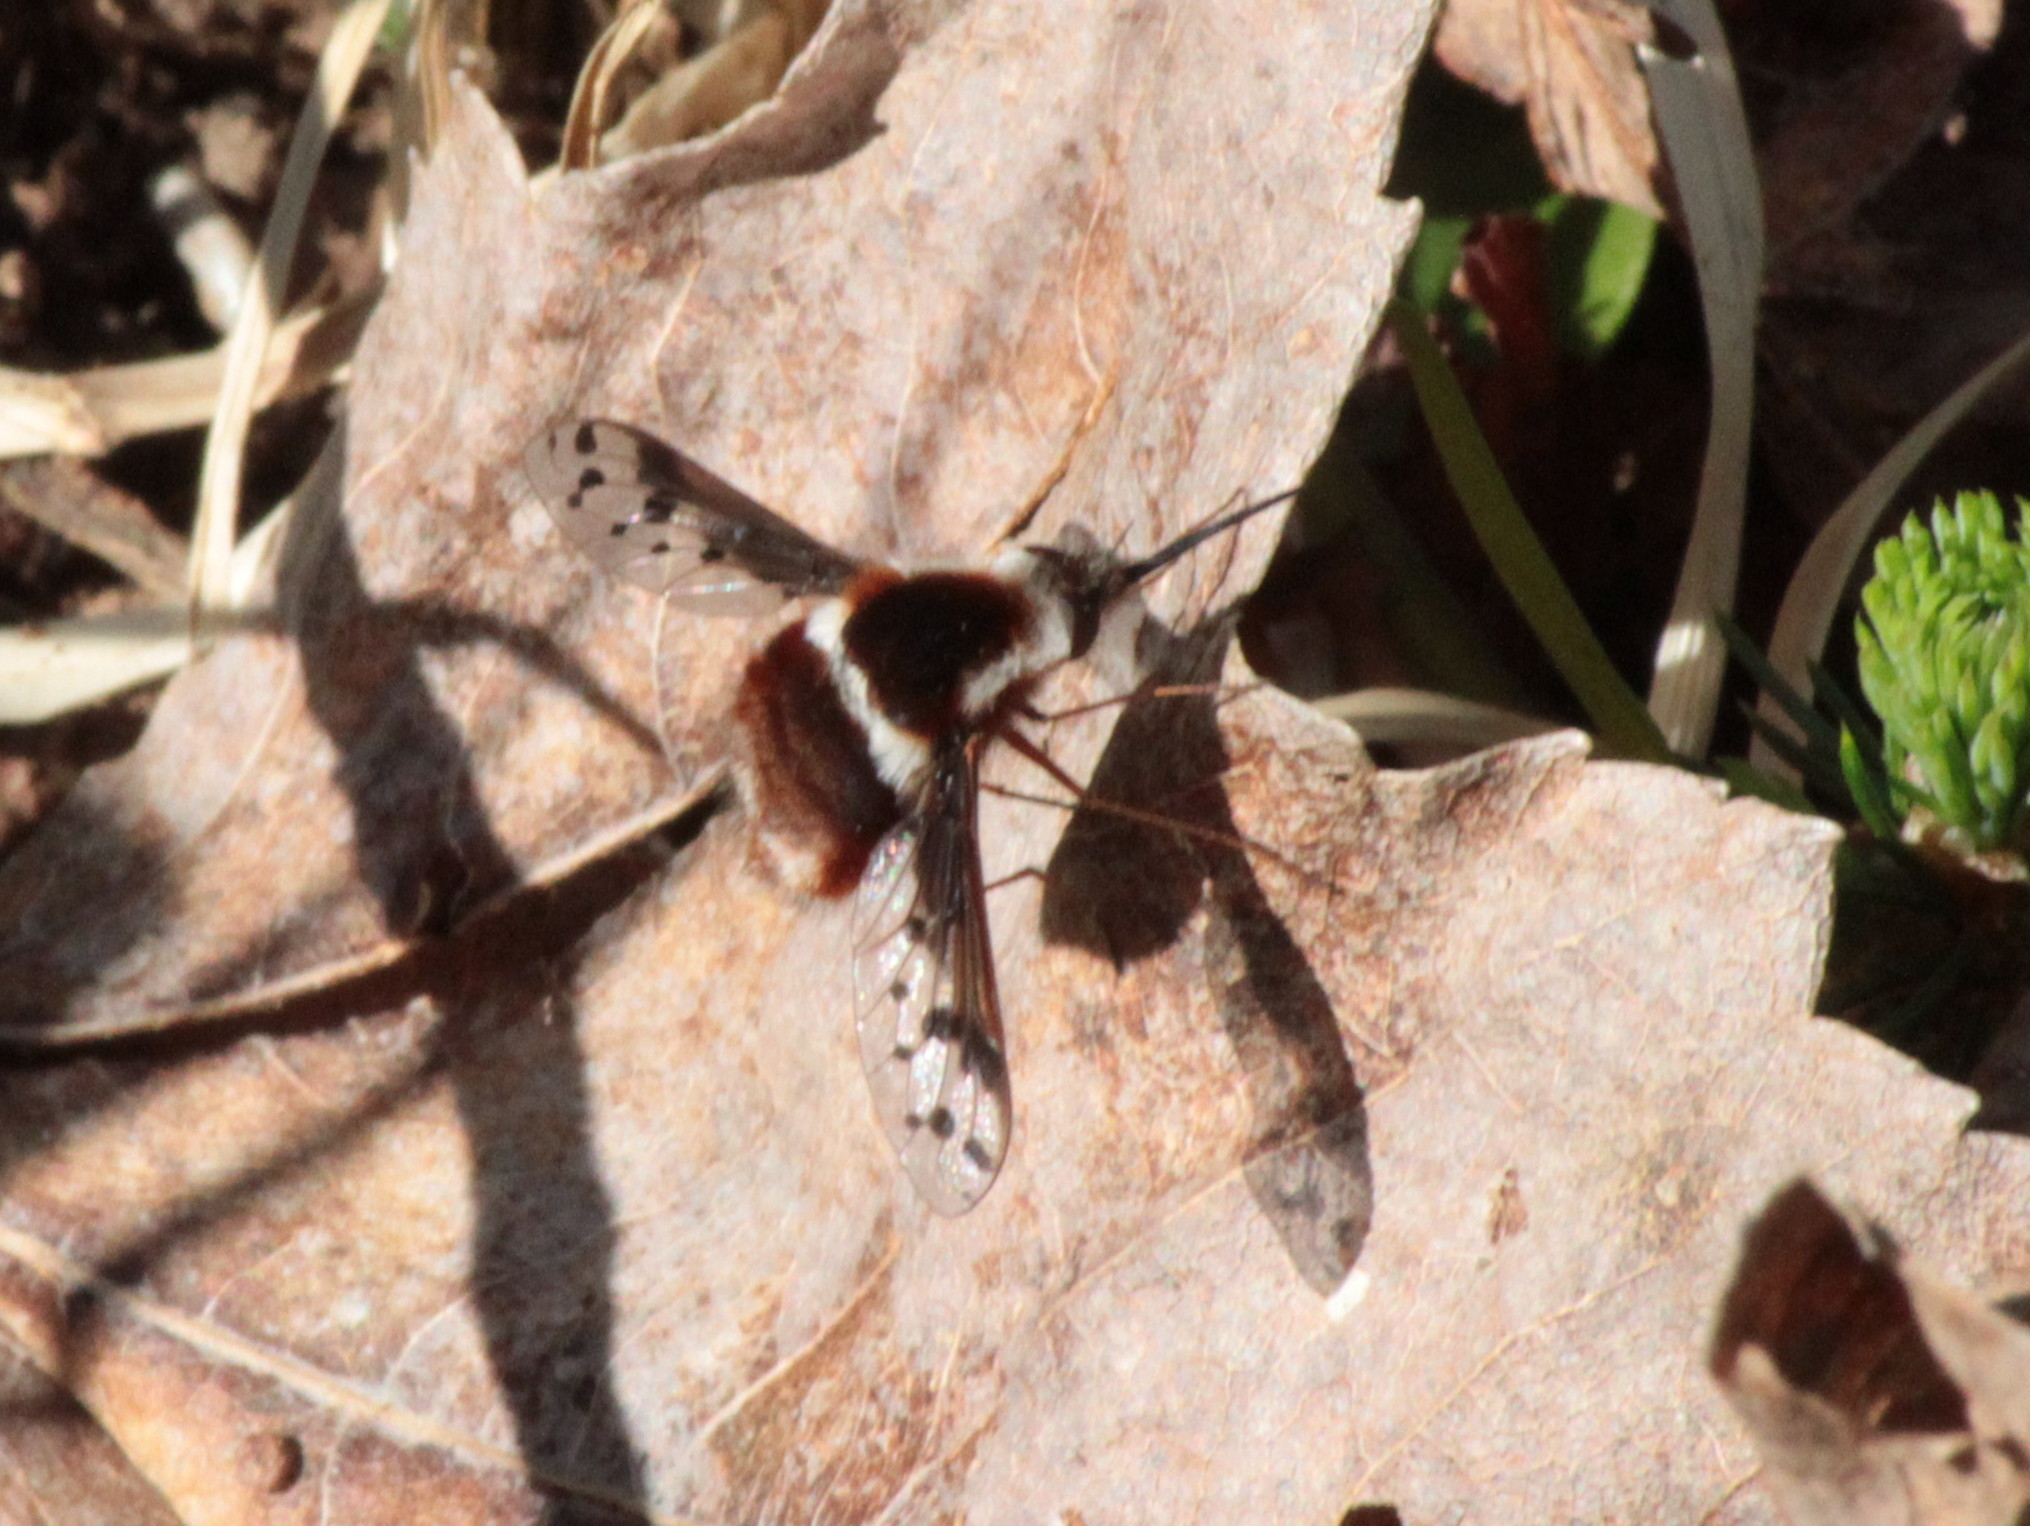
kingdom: Animalia
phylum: Arthropoda
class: Insecta
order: Diptera
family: Bombyliidae
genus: Bombylius
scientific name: Bombylius pygmaeus
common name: Pygmy bee fly
